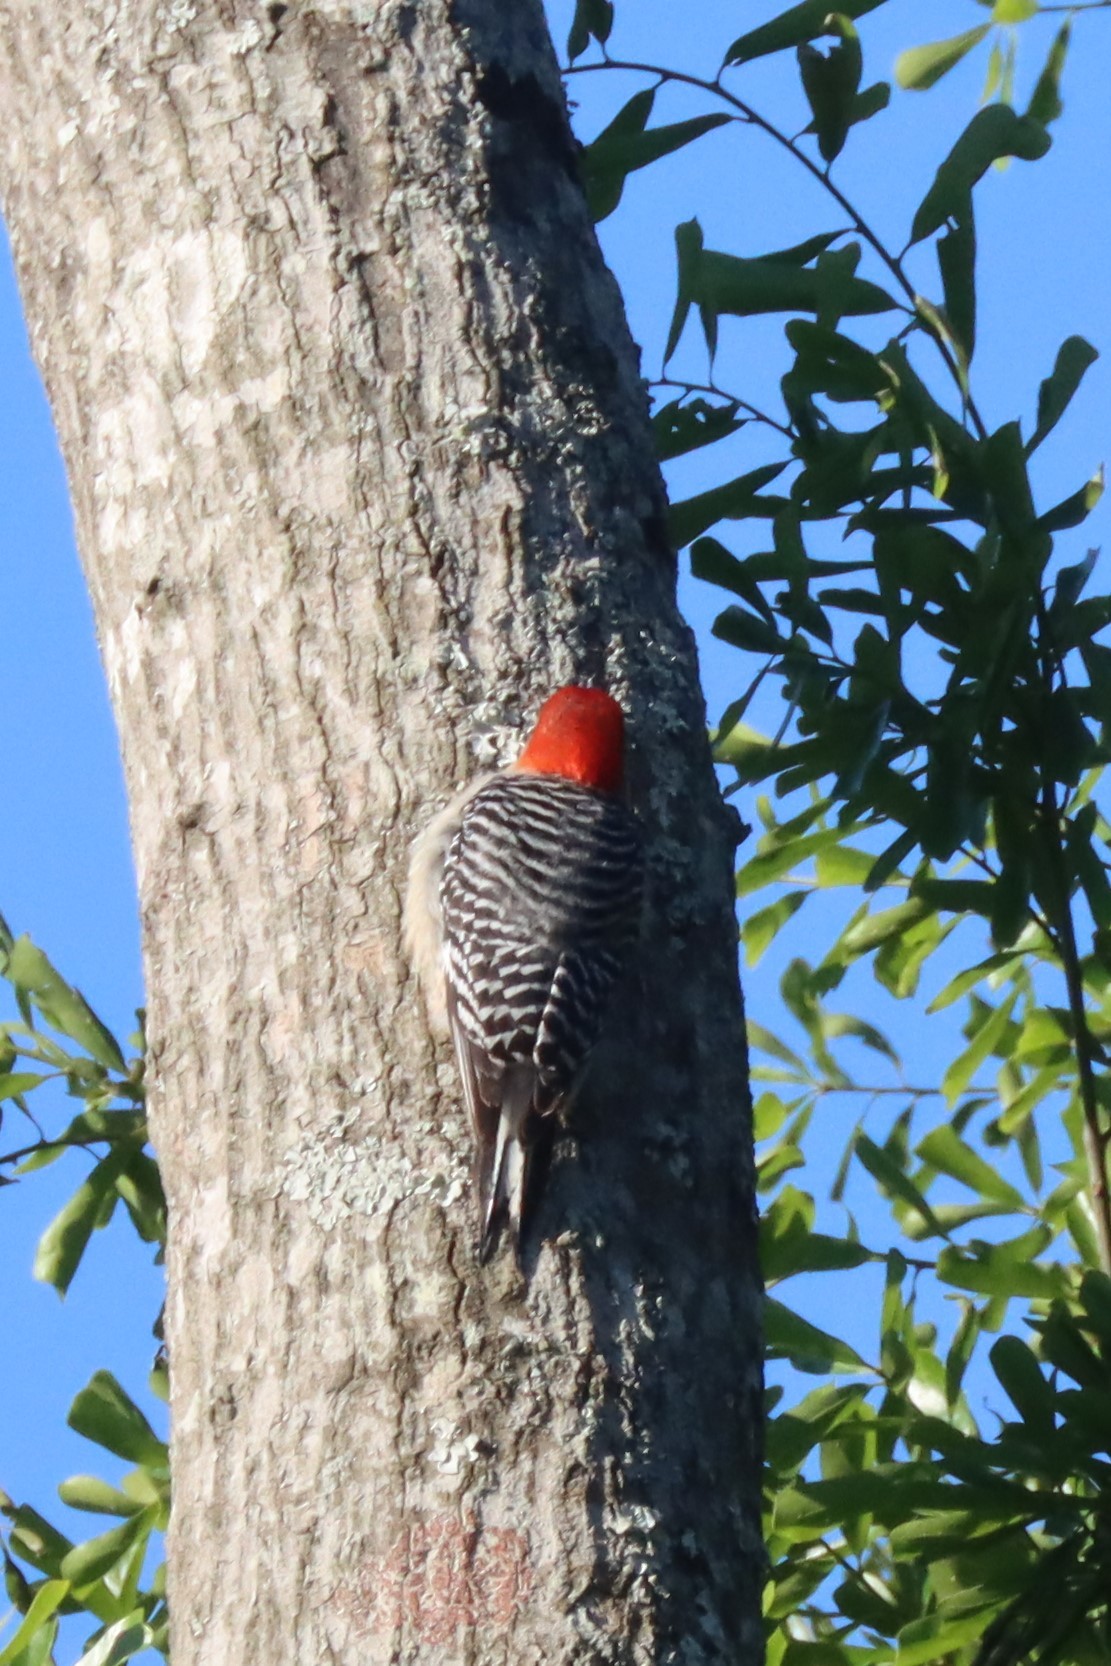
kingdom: Animalia
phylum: Chordata
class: Aves
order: Piciformes
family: Picidae
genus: Melanerpes
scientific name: Melanerpes carolinus
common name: Red-bellied woodpecker
